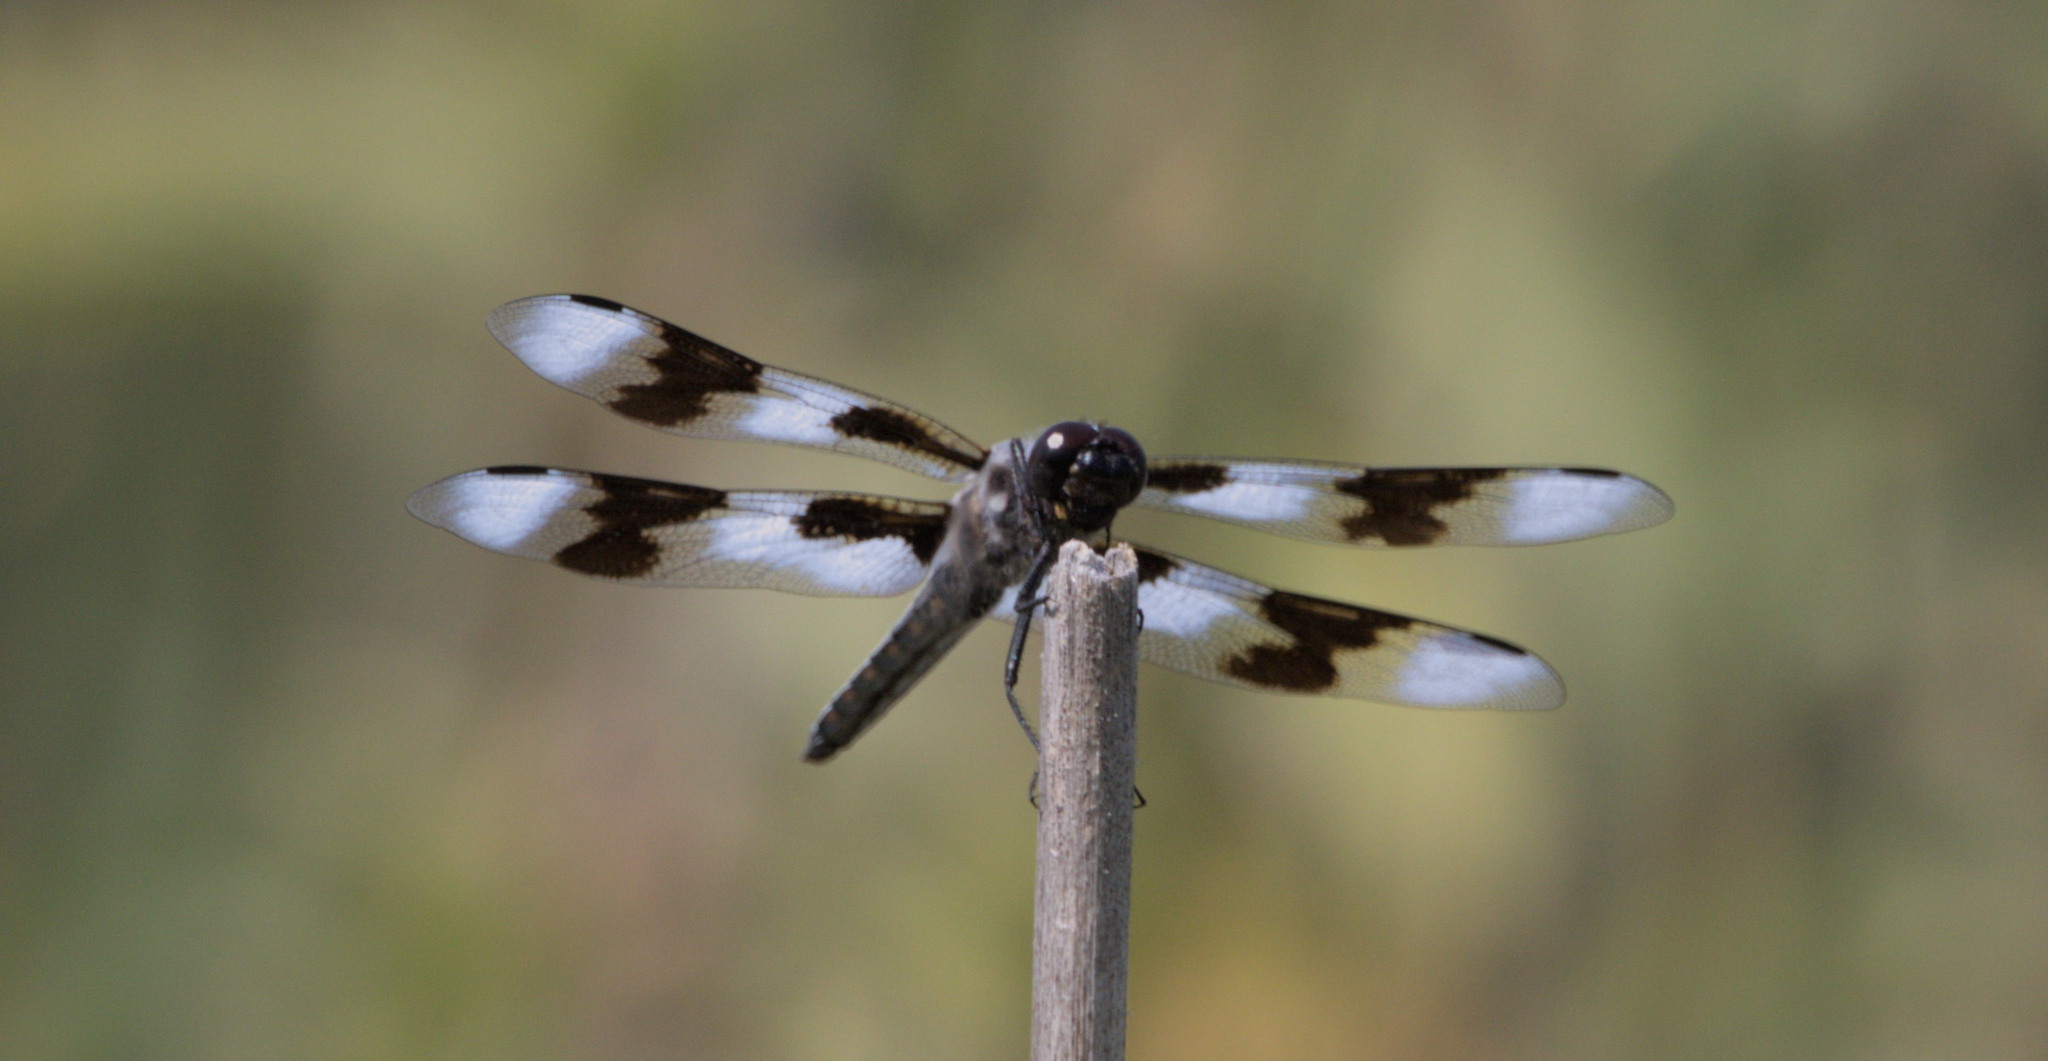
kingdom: Animalia
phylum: Arthropoda
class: Insecta
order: Odonata
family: Libellulidae
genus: Libellula
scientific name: Libellula forensis
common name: Eight-spotted skimmer
